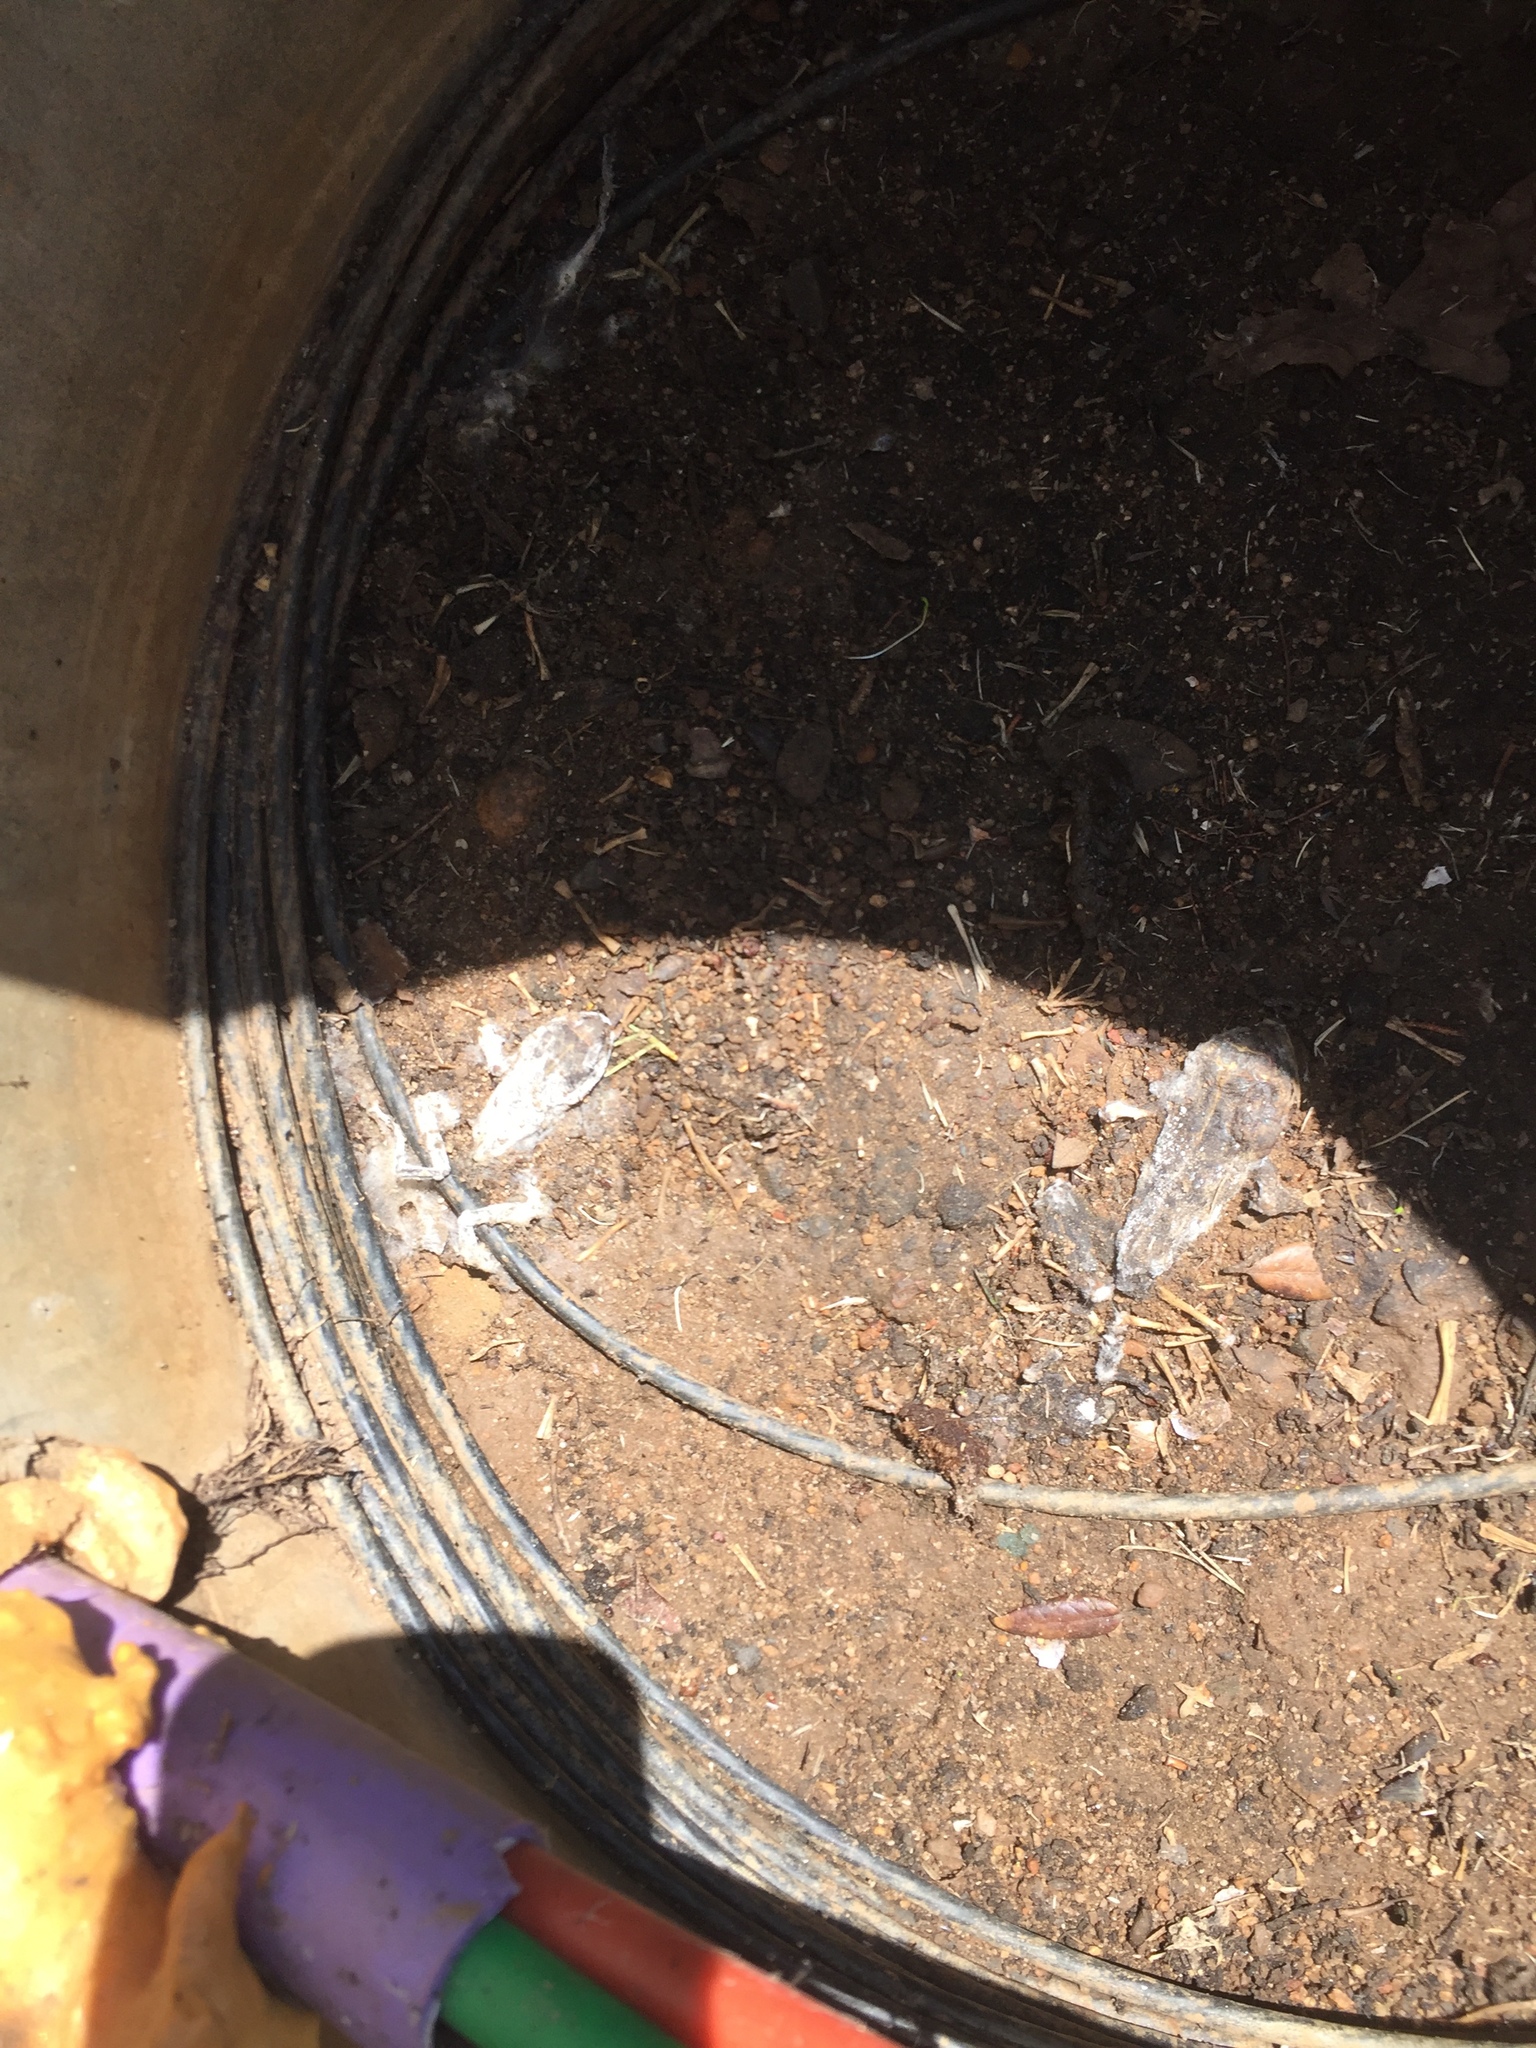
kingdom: Animalia
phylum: Chordata
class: Amphibia
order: Anura
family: Bufonidae
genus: Sclerophrys
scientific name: Sclerophrys pantherina
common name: Panther toad
